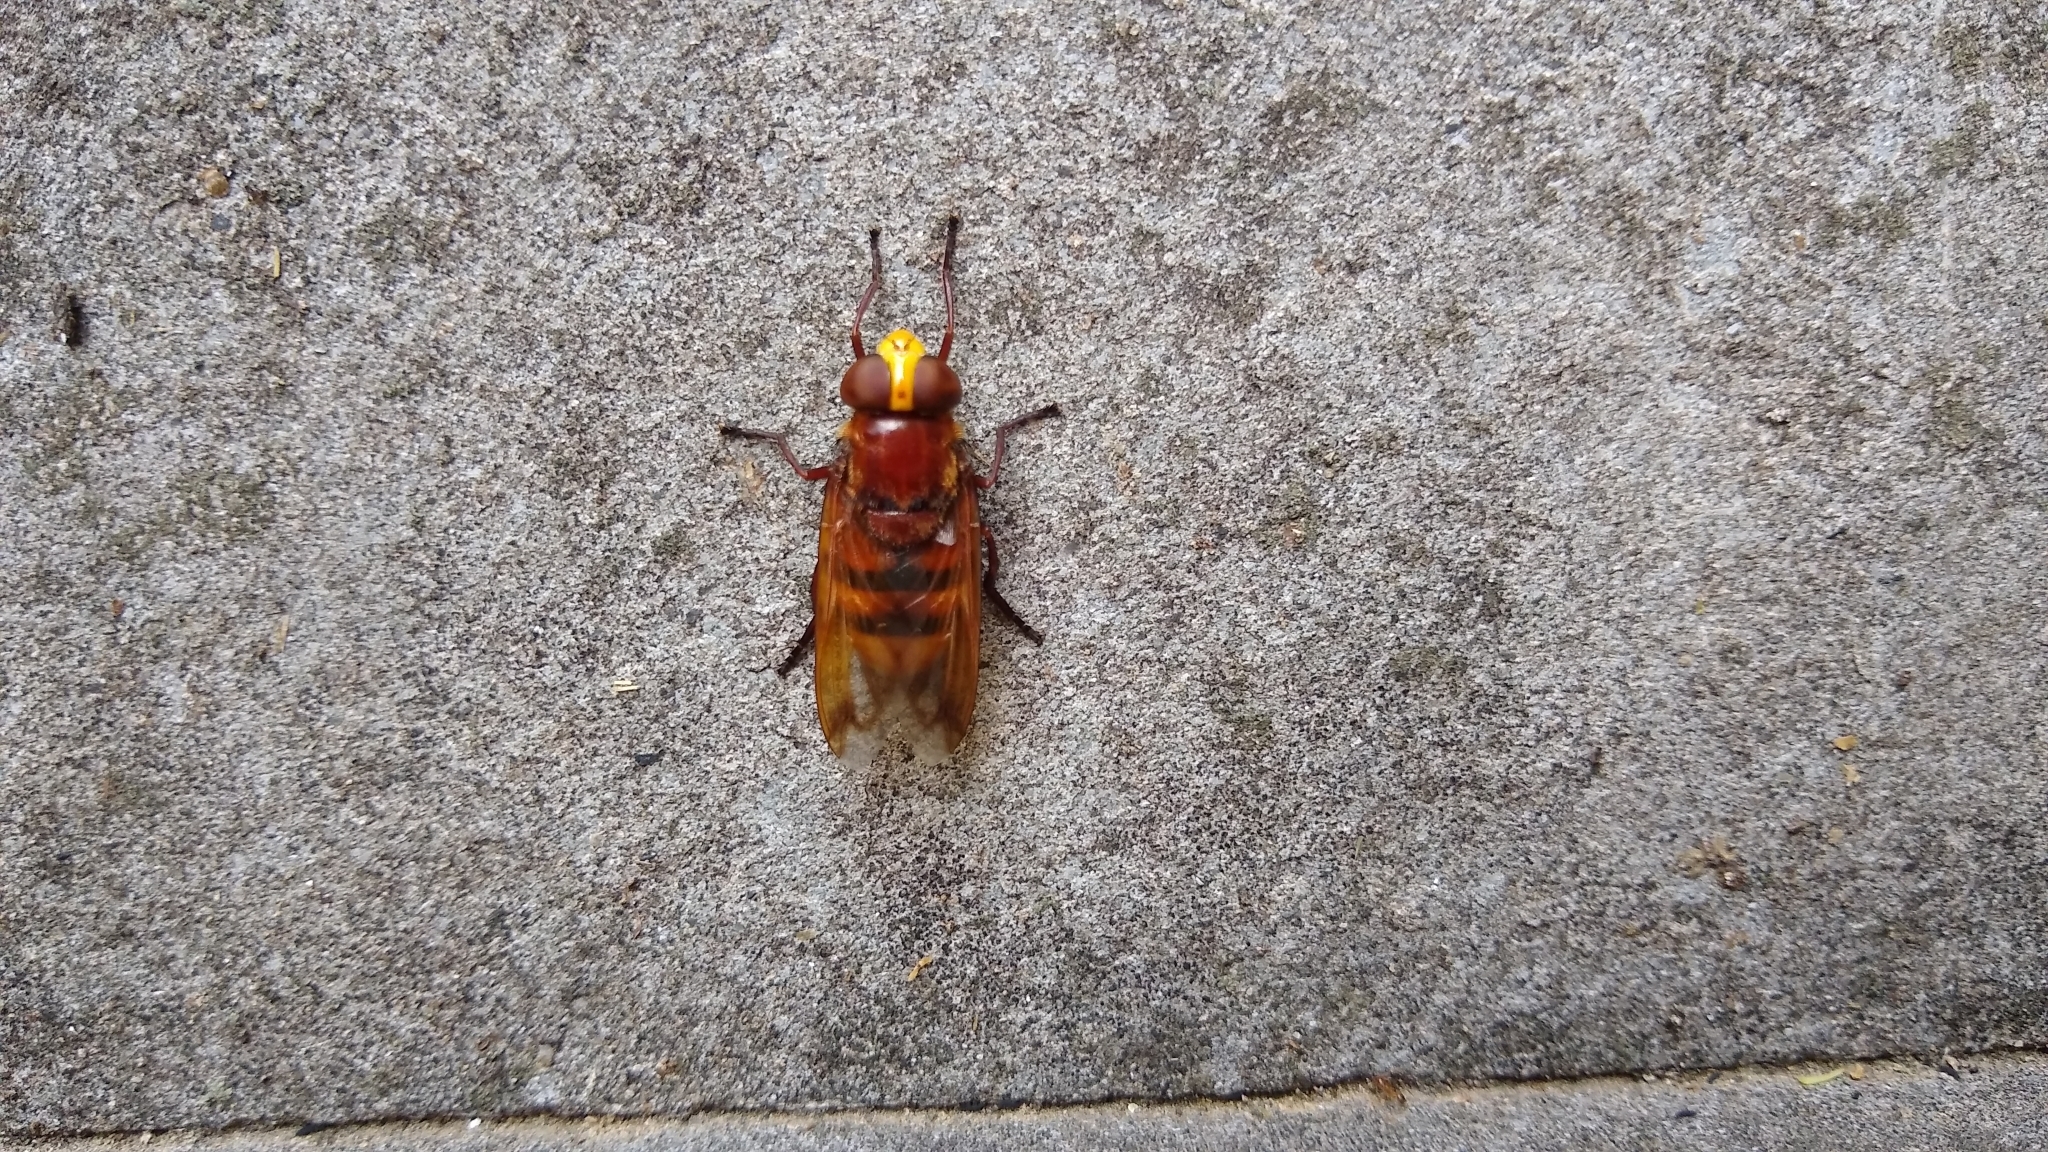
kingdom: Animalia
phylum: Arthropoda
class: Insecta
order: Diptera
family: Syrphidae
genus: Volucella
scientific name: Volucella zonaria
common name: Hornet hoverfly
